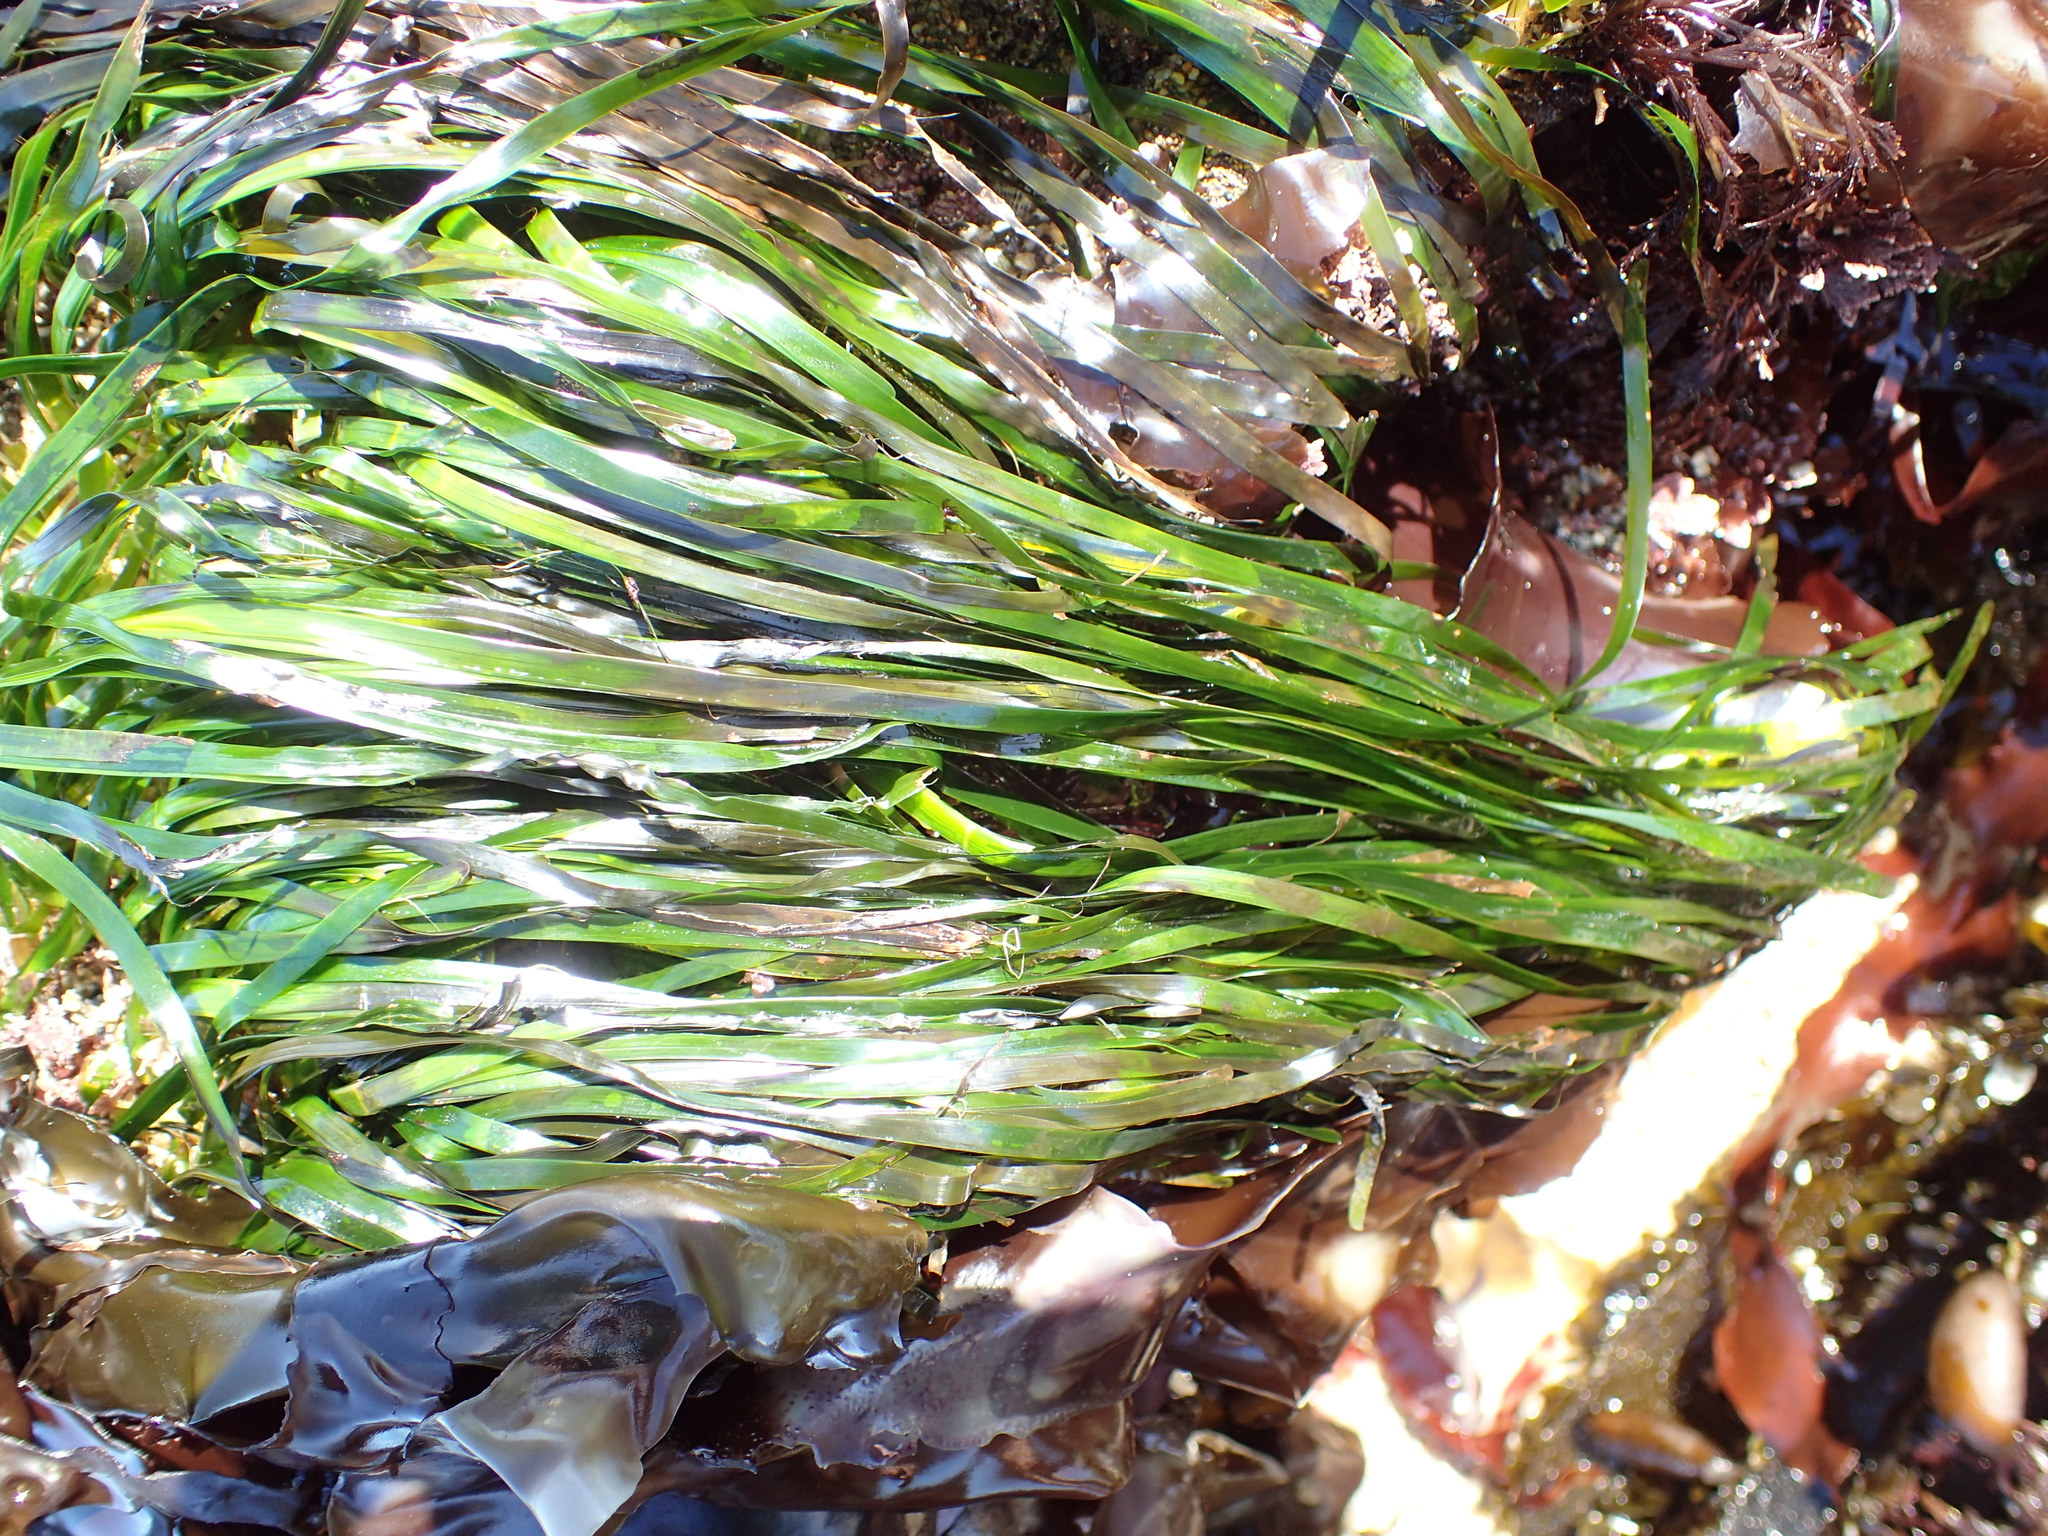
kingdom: Plantae
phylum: Tracheophyta
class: Liliopsida
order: Alismatales
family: Zosteraceae
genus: Phyllospadix
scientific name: Phyllospadix scouleri
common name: Species code: ps
